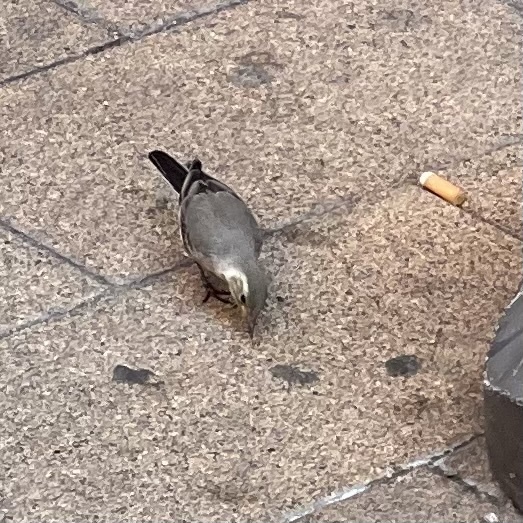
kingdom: Animalia
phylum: Chordata
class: Aves
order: Passeriformes
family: Motacillidae
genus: Motacilla
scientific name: Motacilla alba
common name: White wagtail
